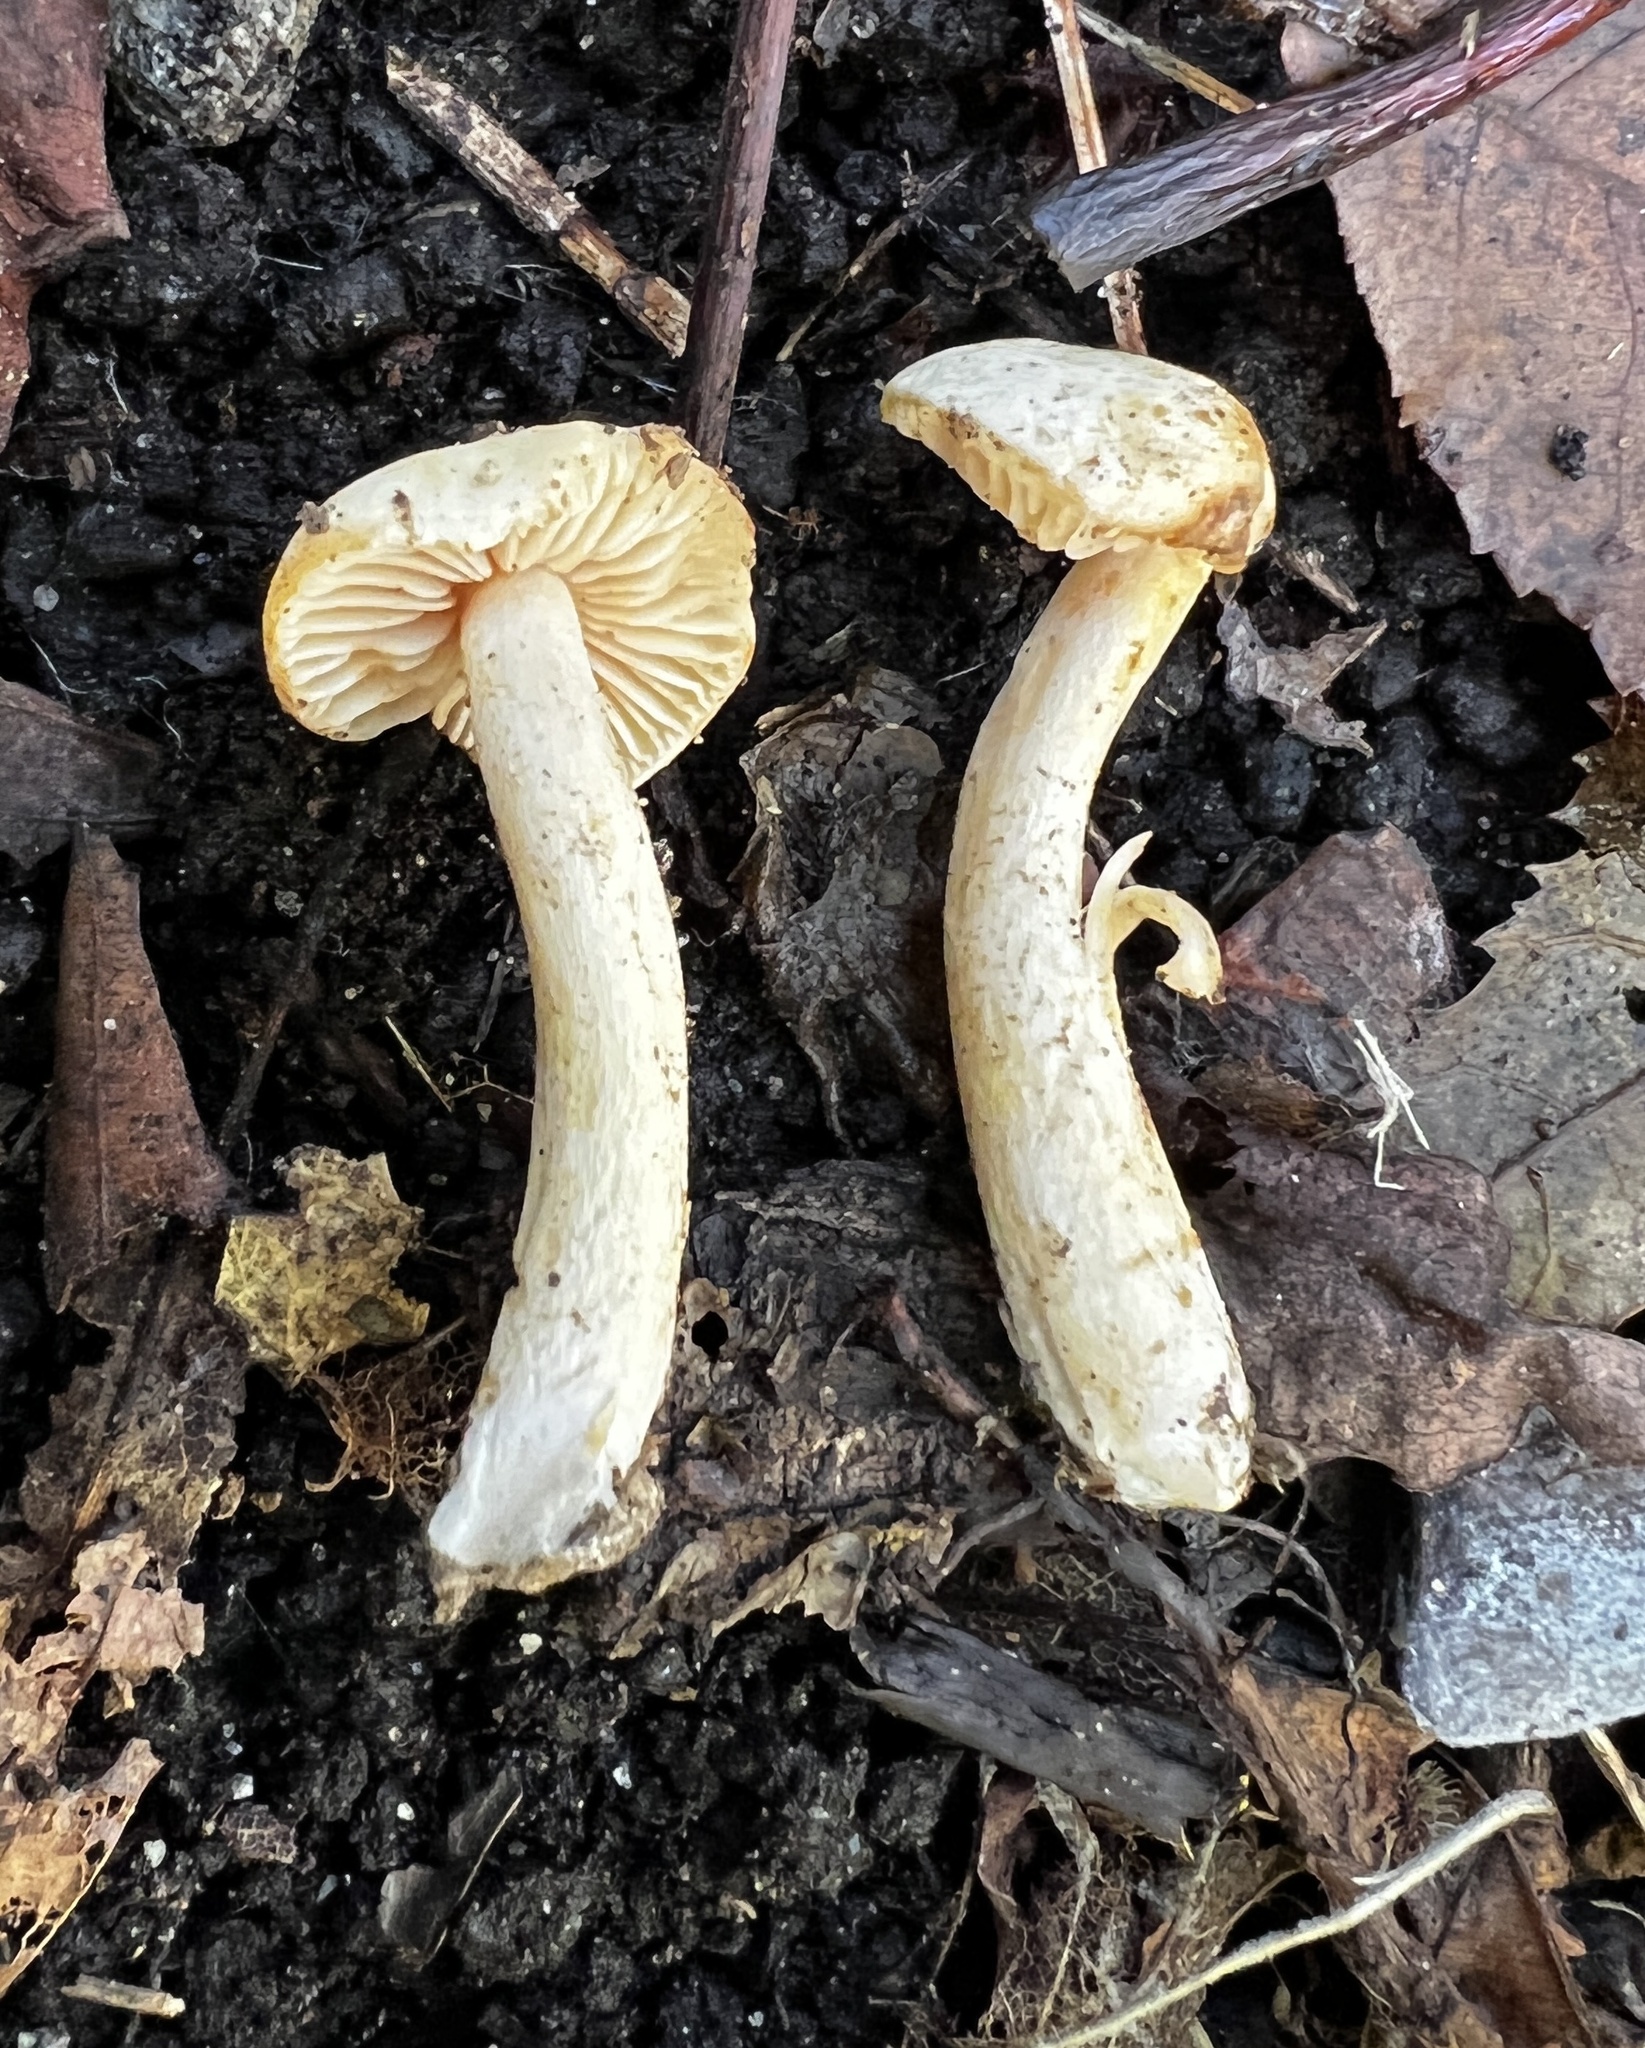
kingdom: Fungi
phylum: Basidiomycota
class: Agaricomycetes
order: Agaricales
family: Hymenogastraceae
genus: Hebeloma
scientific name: Hebeloma ischnostylum
